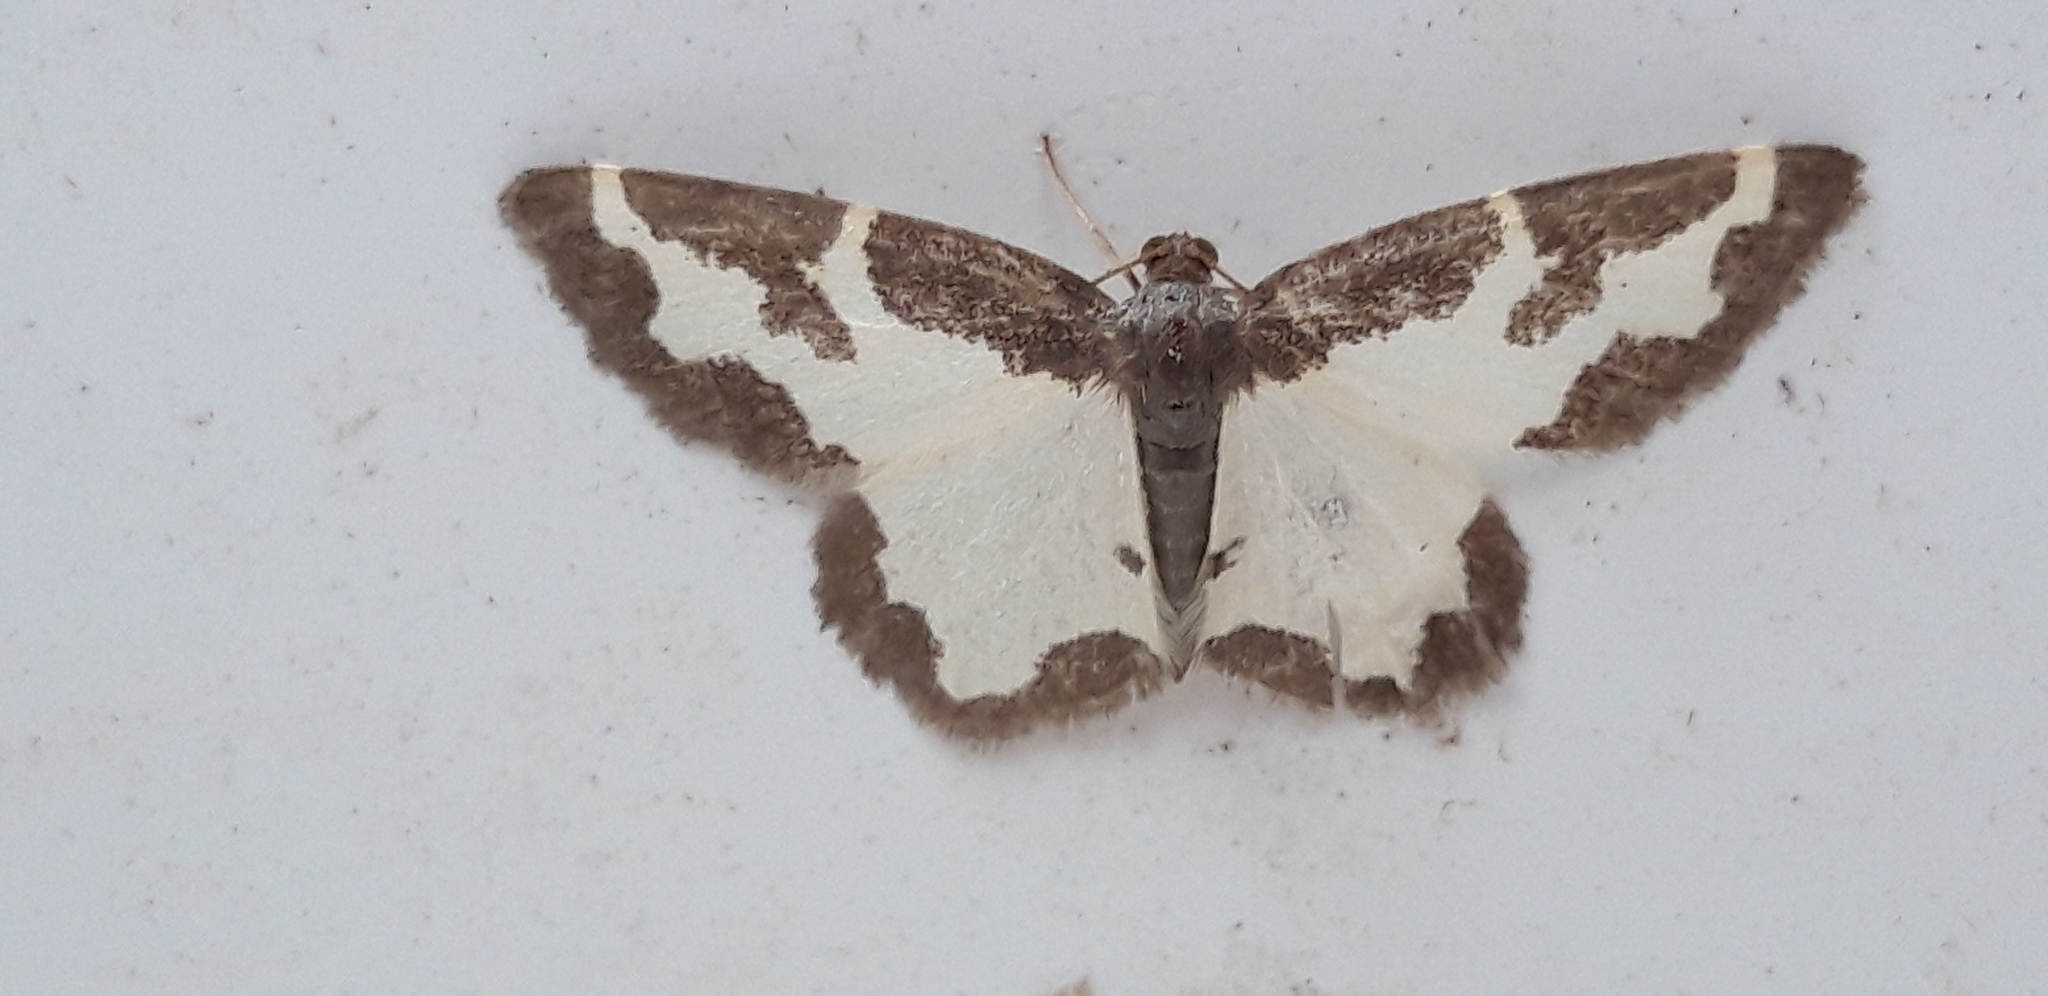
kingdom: Animalia
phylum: Arthropoda
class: Insecta
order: Lepidoptera
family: Geometridae
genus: Lomaspilis
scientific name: Lomaspilis marginata
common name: Clouded border
